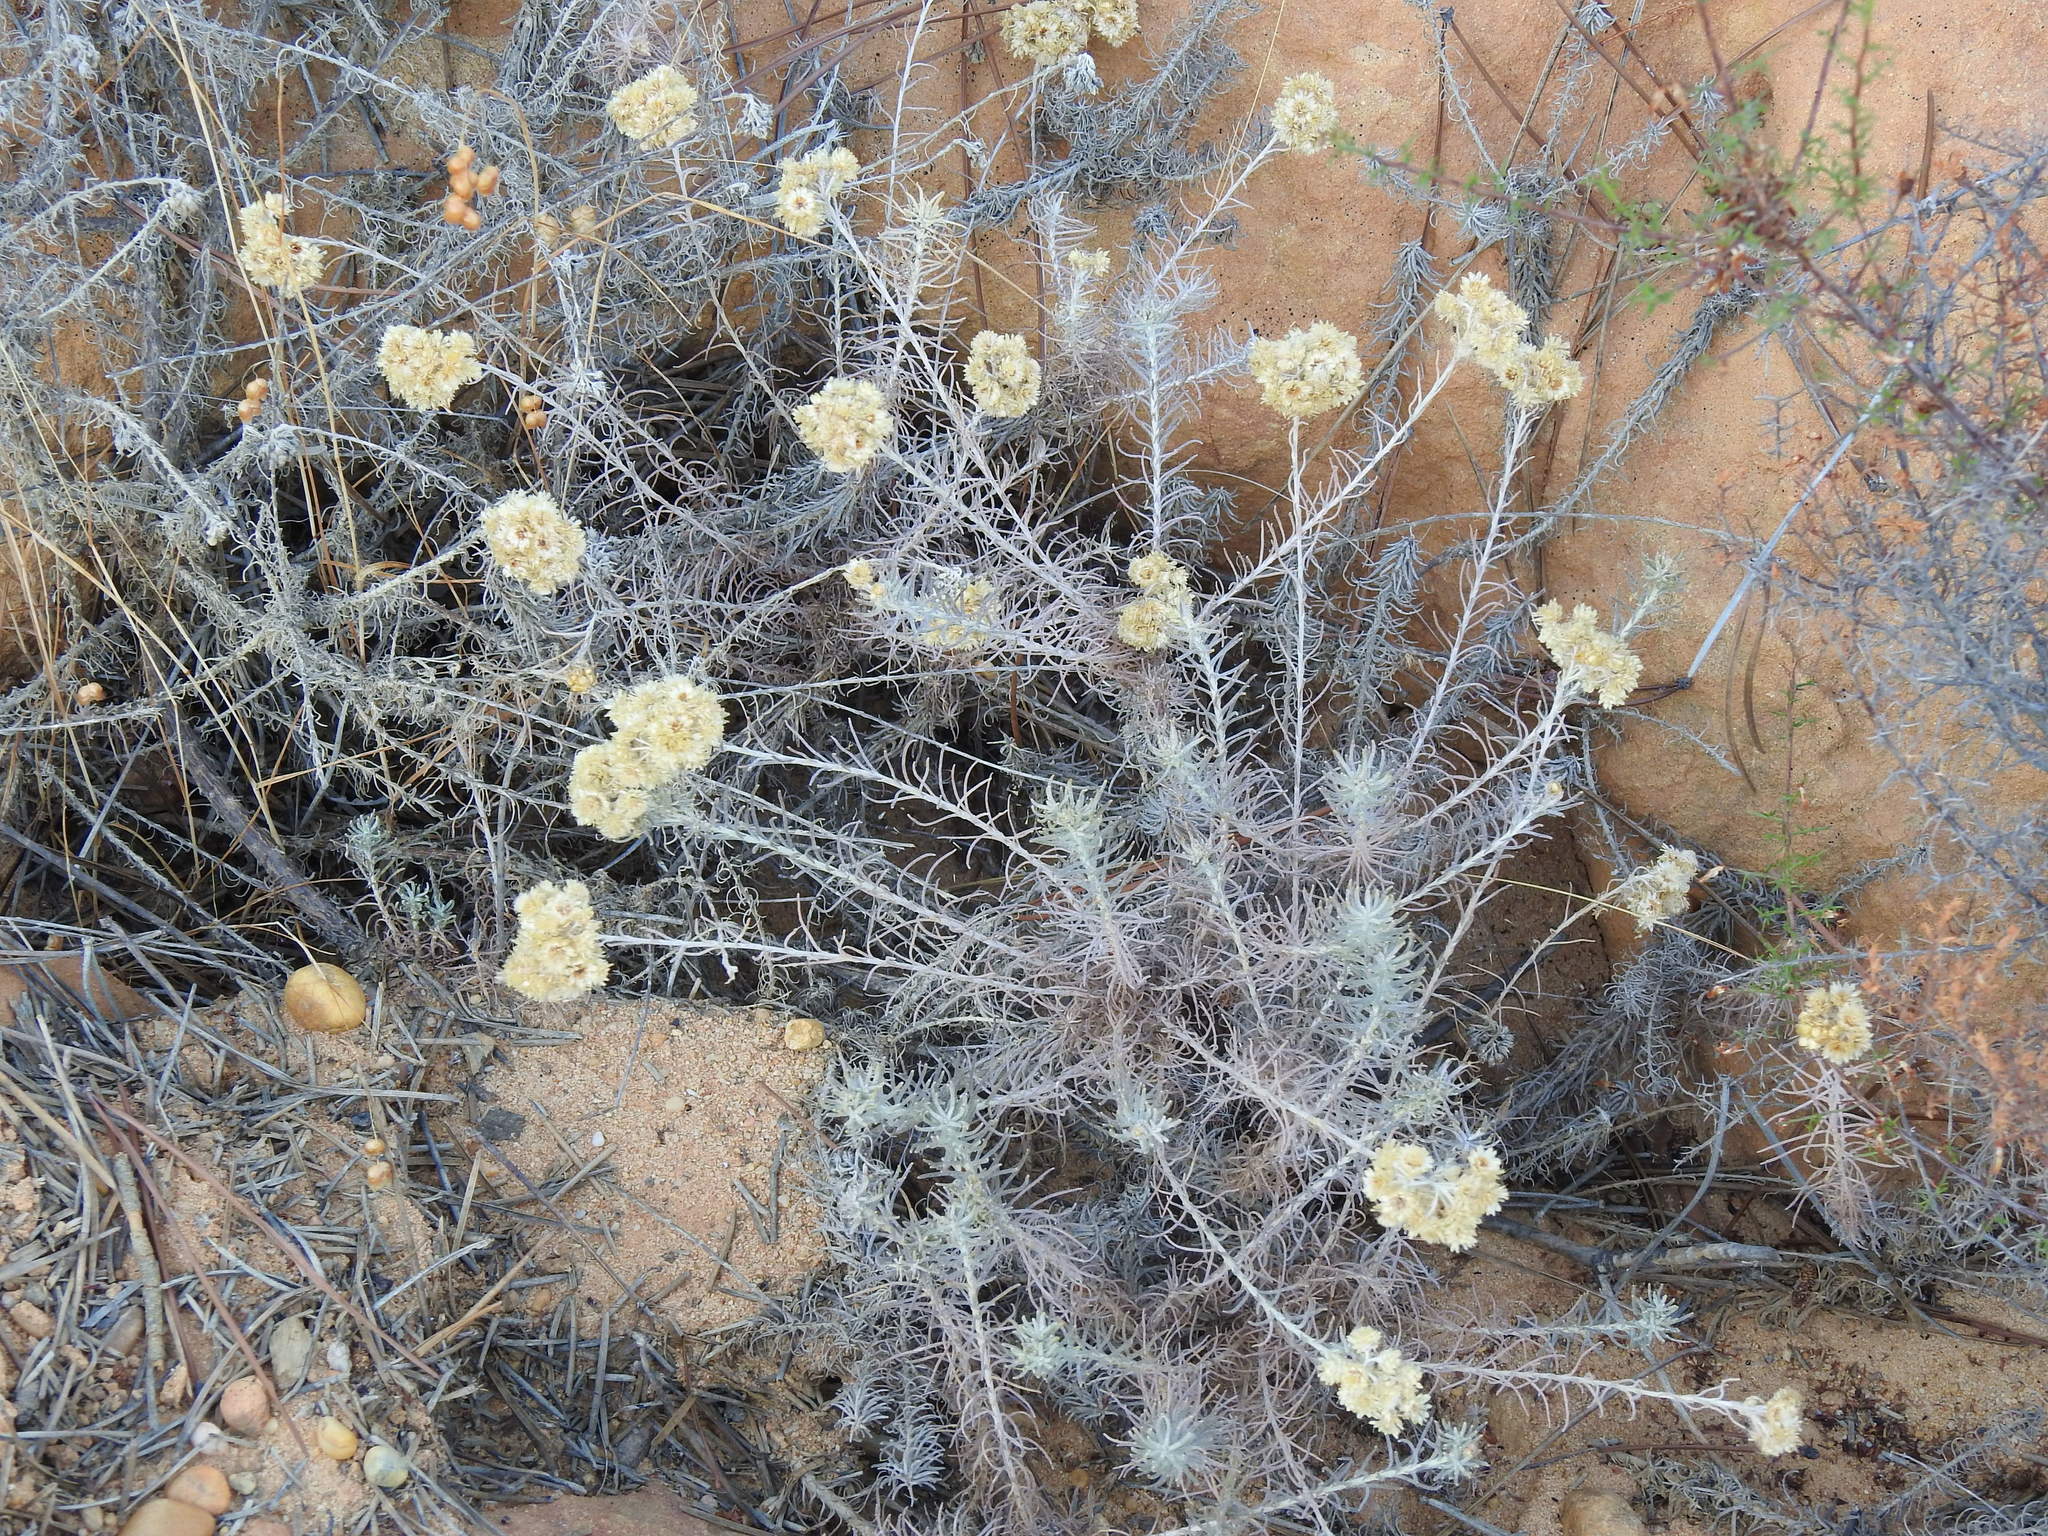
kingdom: Plantae
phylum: Tracheophyta
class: Magnoliopsida
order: Asterales
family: Asteraceae
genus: Helichrysum
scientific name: Helichrysum stoechas
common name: Goldilocks
